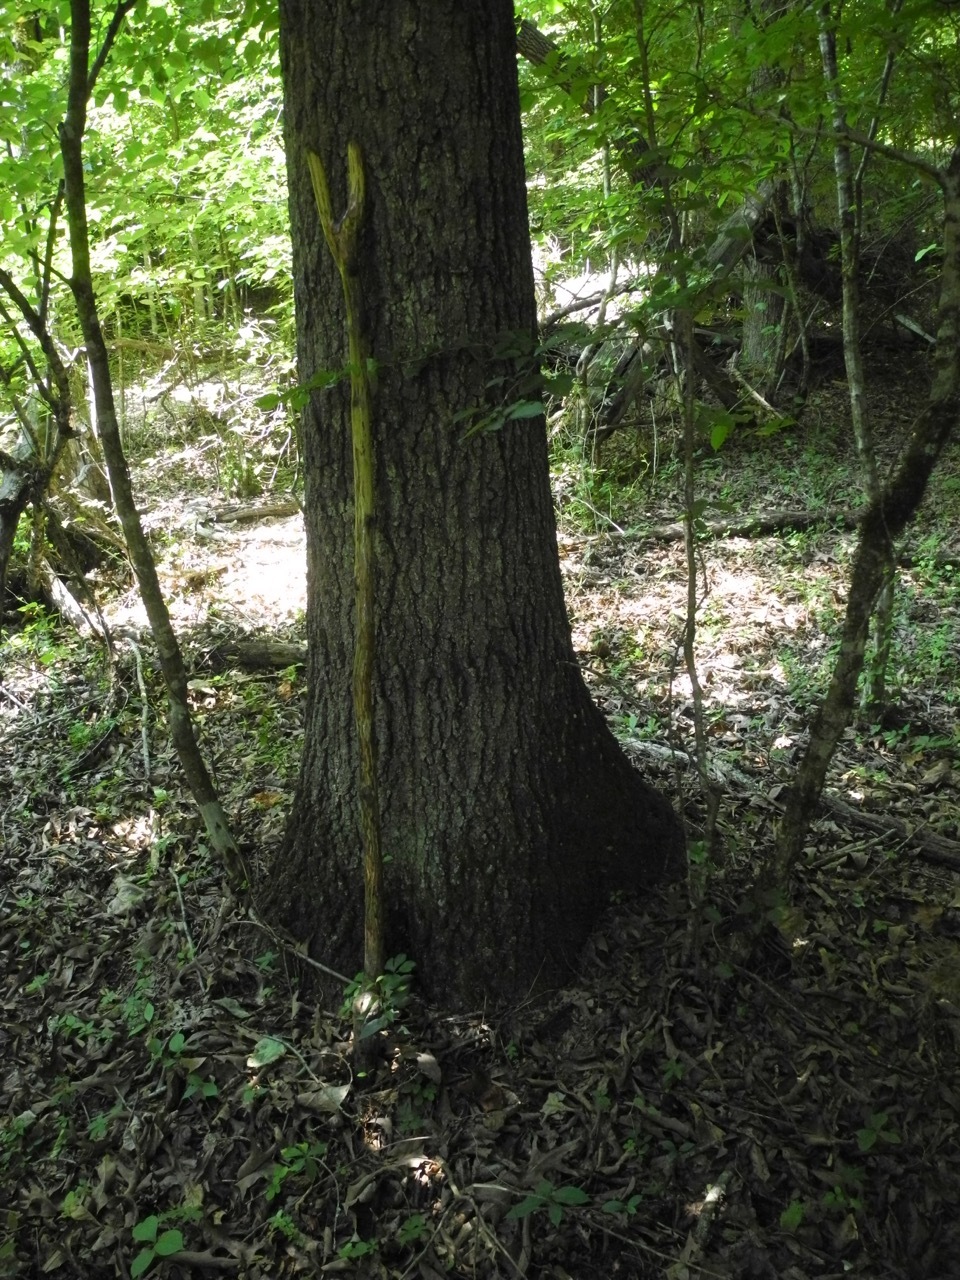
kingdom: Plantae
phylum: Tracheophyta
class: Magnoliopsida
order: Fagales
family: Fagaceae
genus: Quercus
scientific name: Quercus falcata
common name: Southern red oak
